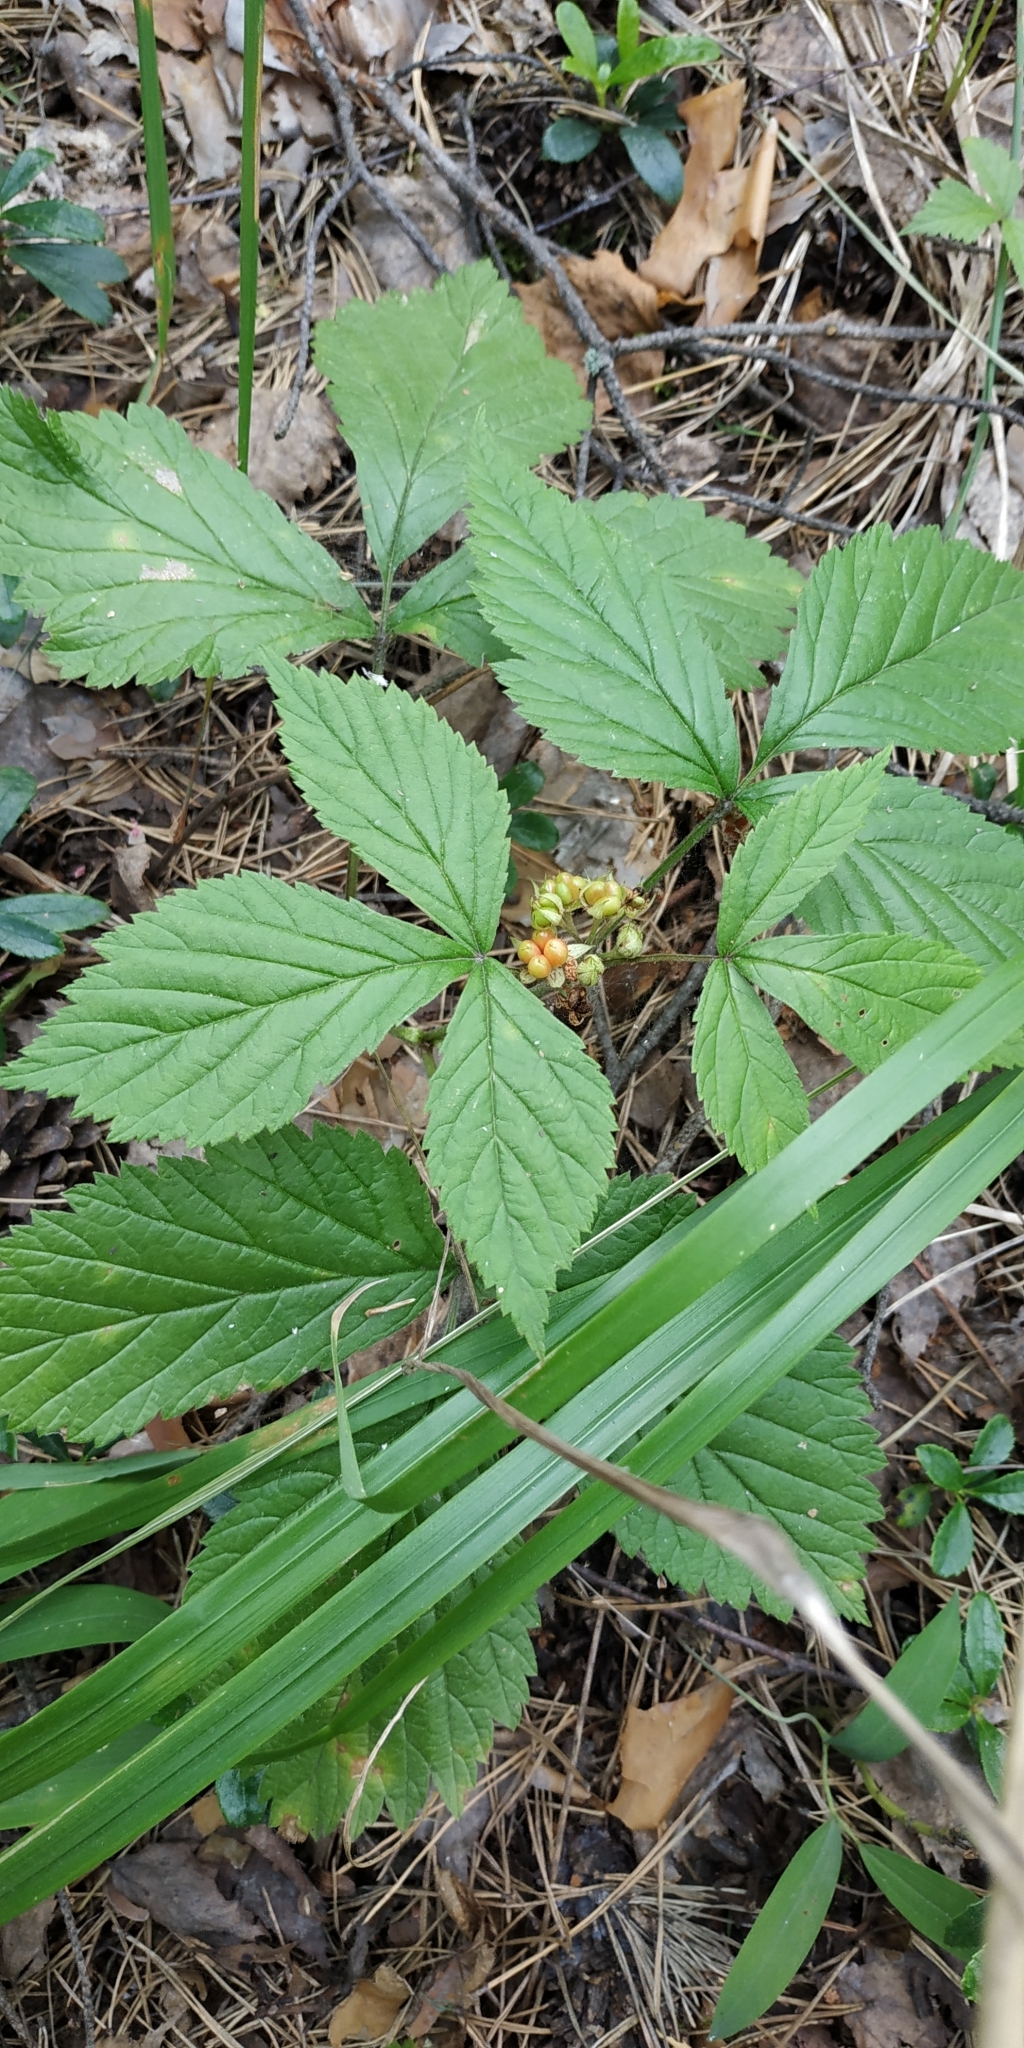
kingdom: Plantae
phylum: Tracheophyta
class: Magnoliopsida
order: Rosales
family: Rosaceae
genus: Rubus
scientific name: Rubus saxatilis
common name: Stone bramble
